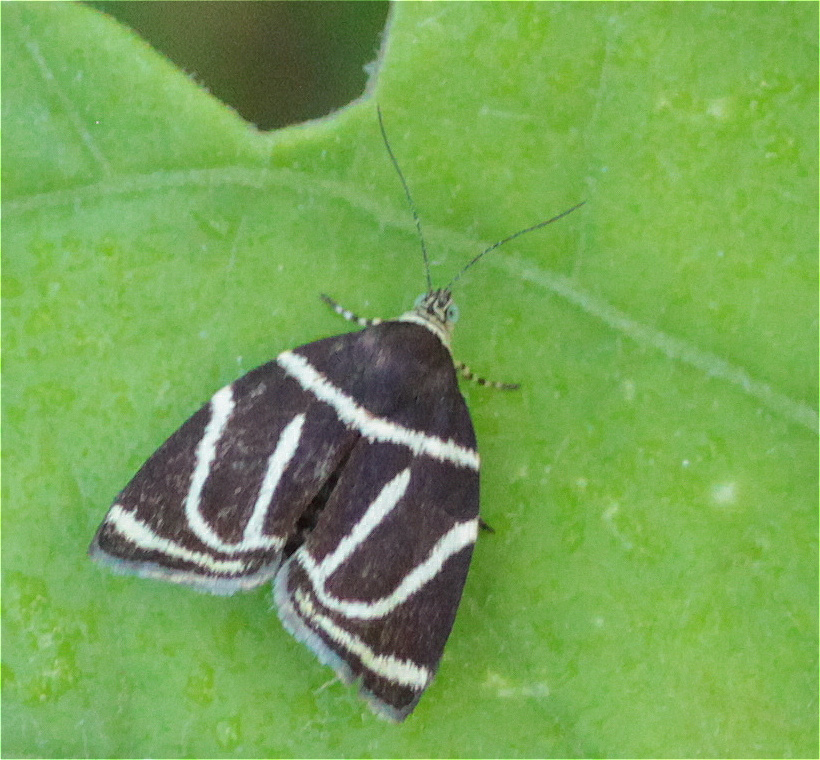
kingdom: Animalia
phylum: Arthropoda
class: Insecta
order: Lepidoptera
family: Choreutidae
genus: Hemerophila
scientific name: Hemerophila
